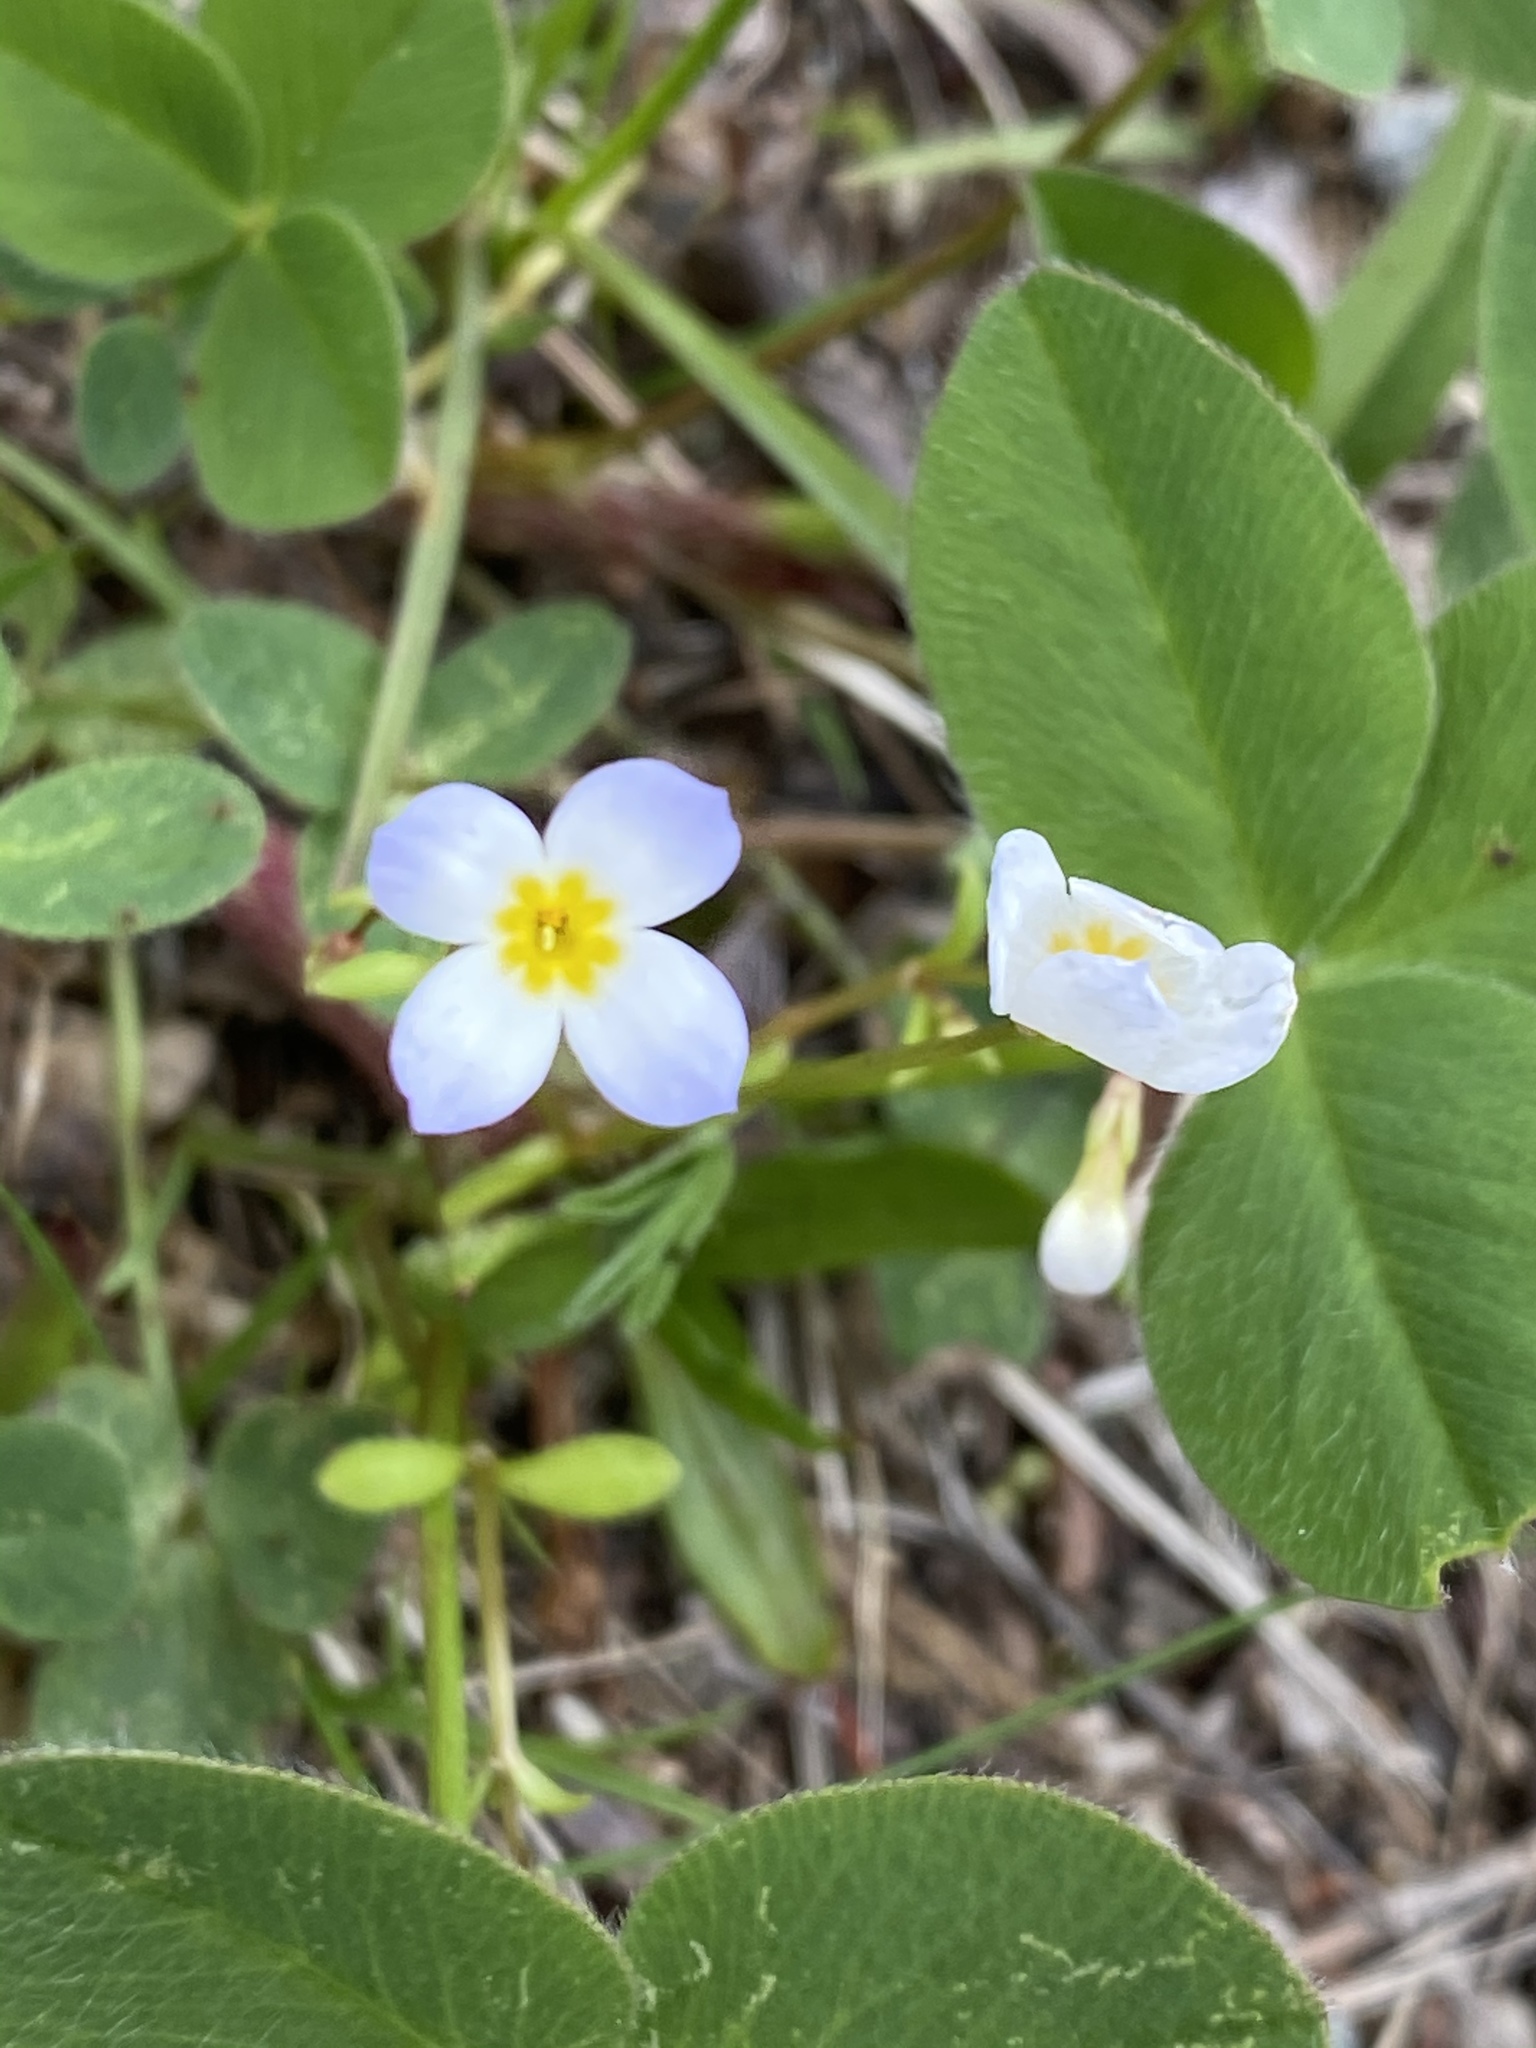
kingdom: Plantae
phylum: Tracheophyta
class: Magnoliopsida
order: Gentianales
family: Rubiaceae
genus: Houstonia
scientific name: Houstonia caerulea
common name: Bluets
